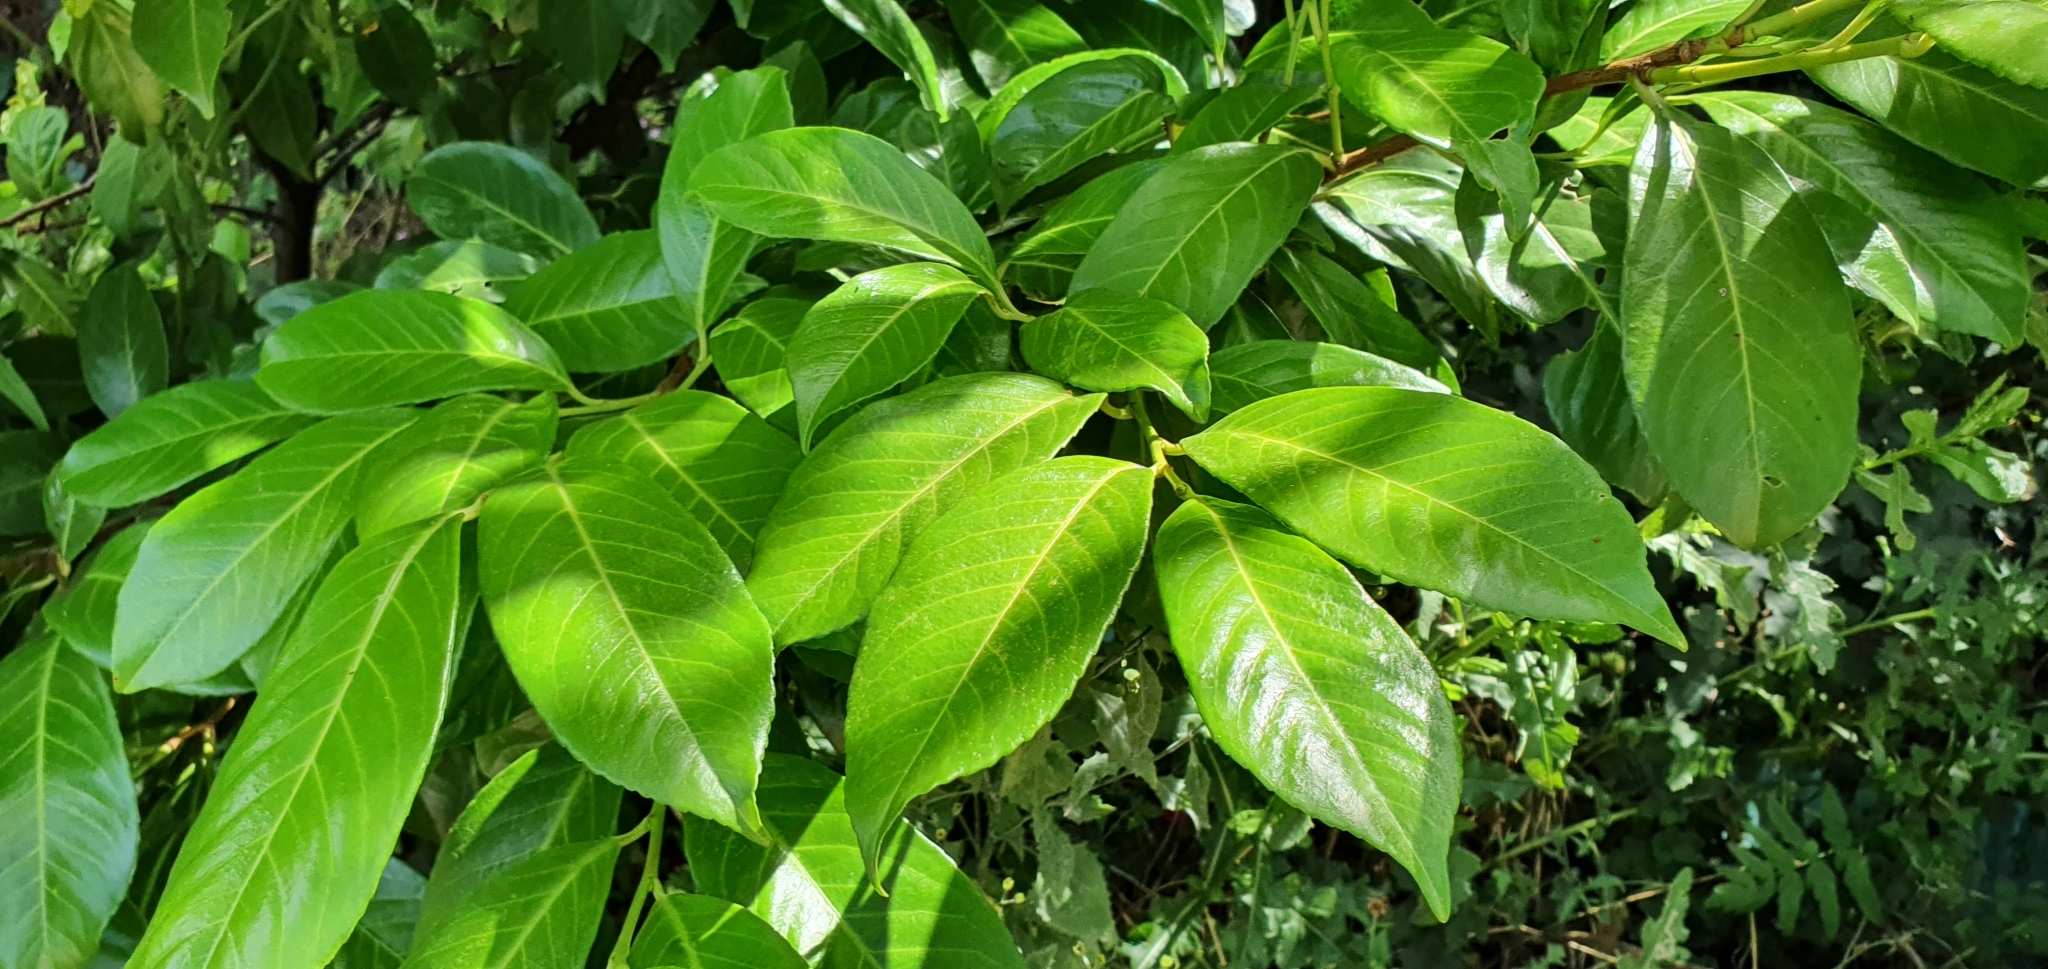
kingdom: Plantae
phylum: Tracheophyta
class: Magnoliopsida
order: Rosales
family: Rosaceae
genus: Prunus
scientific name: Prunus laurocerasus
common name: Cherry laurel
